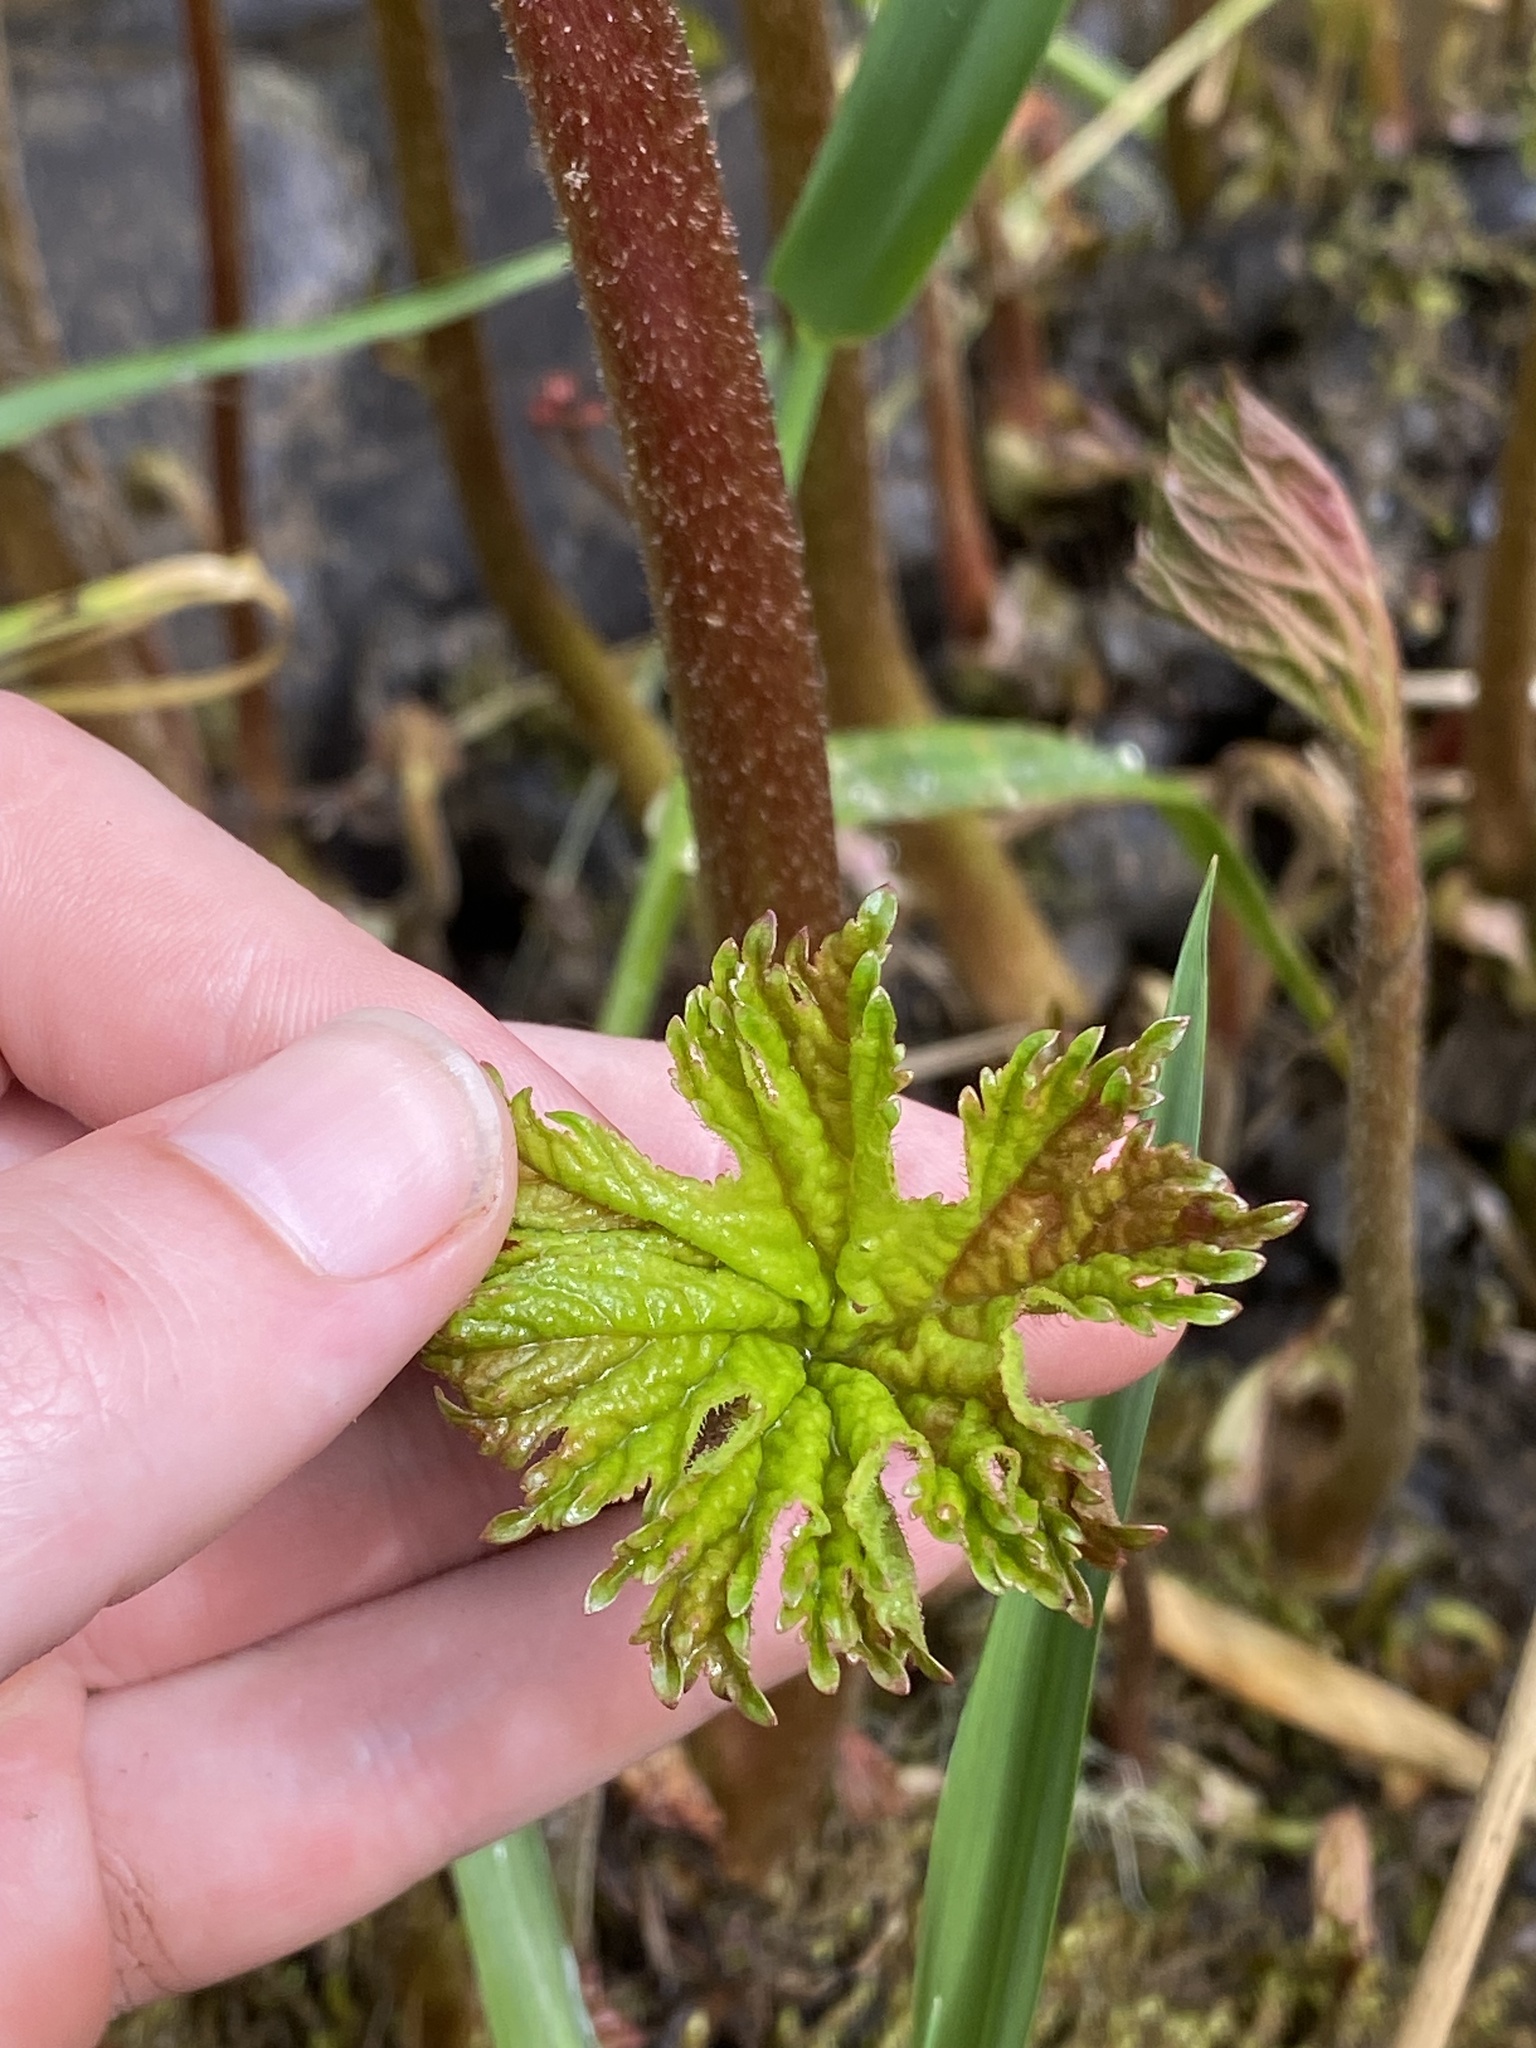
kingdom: Plantae
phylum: Tracheophyta
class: Magnoliopsida
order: Saxifragales
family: Saxifragaceae
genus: Darmera
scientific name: Darmera peltata
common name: Indian-rhubarb
